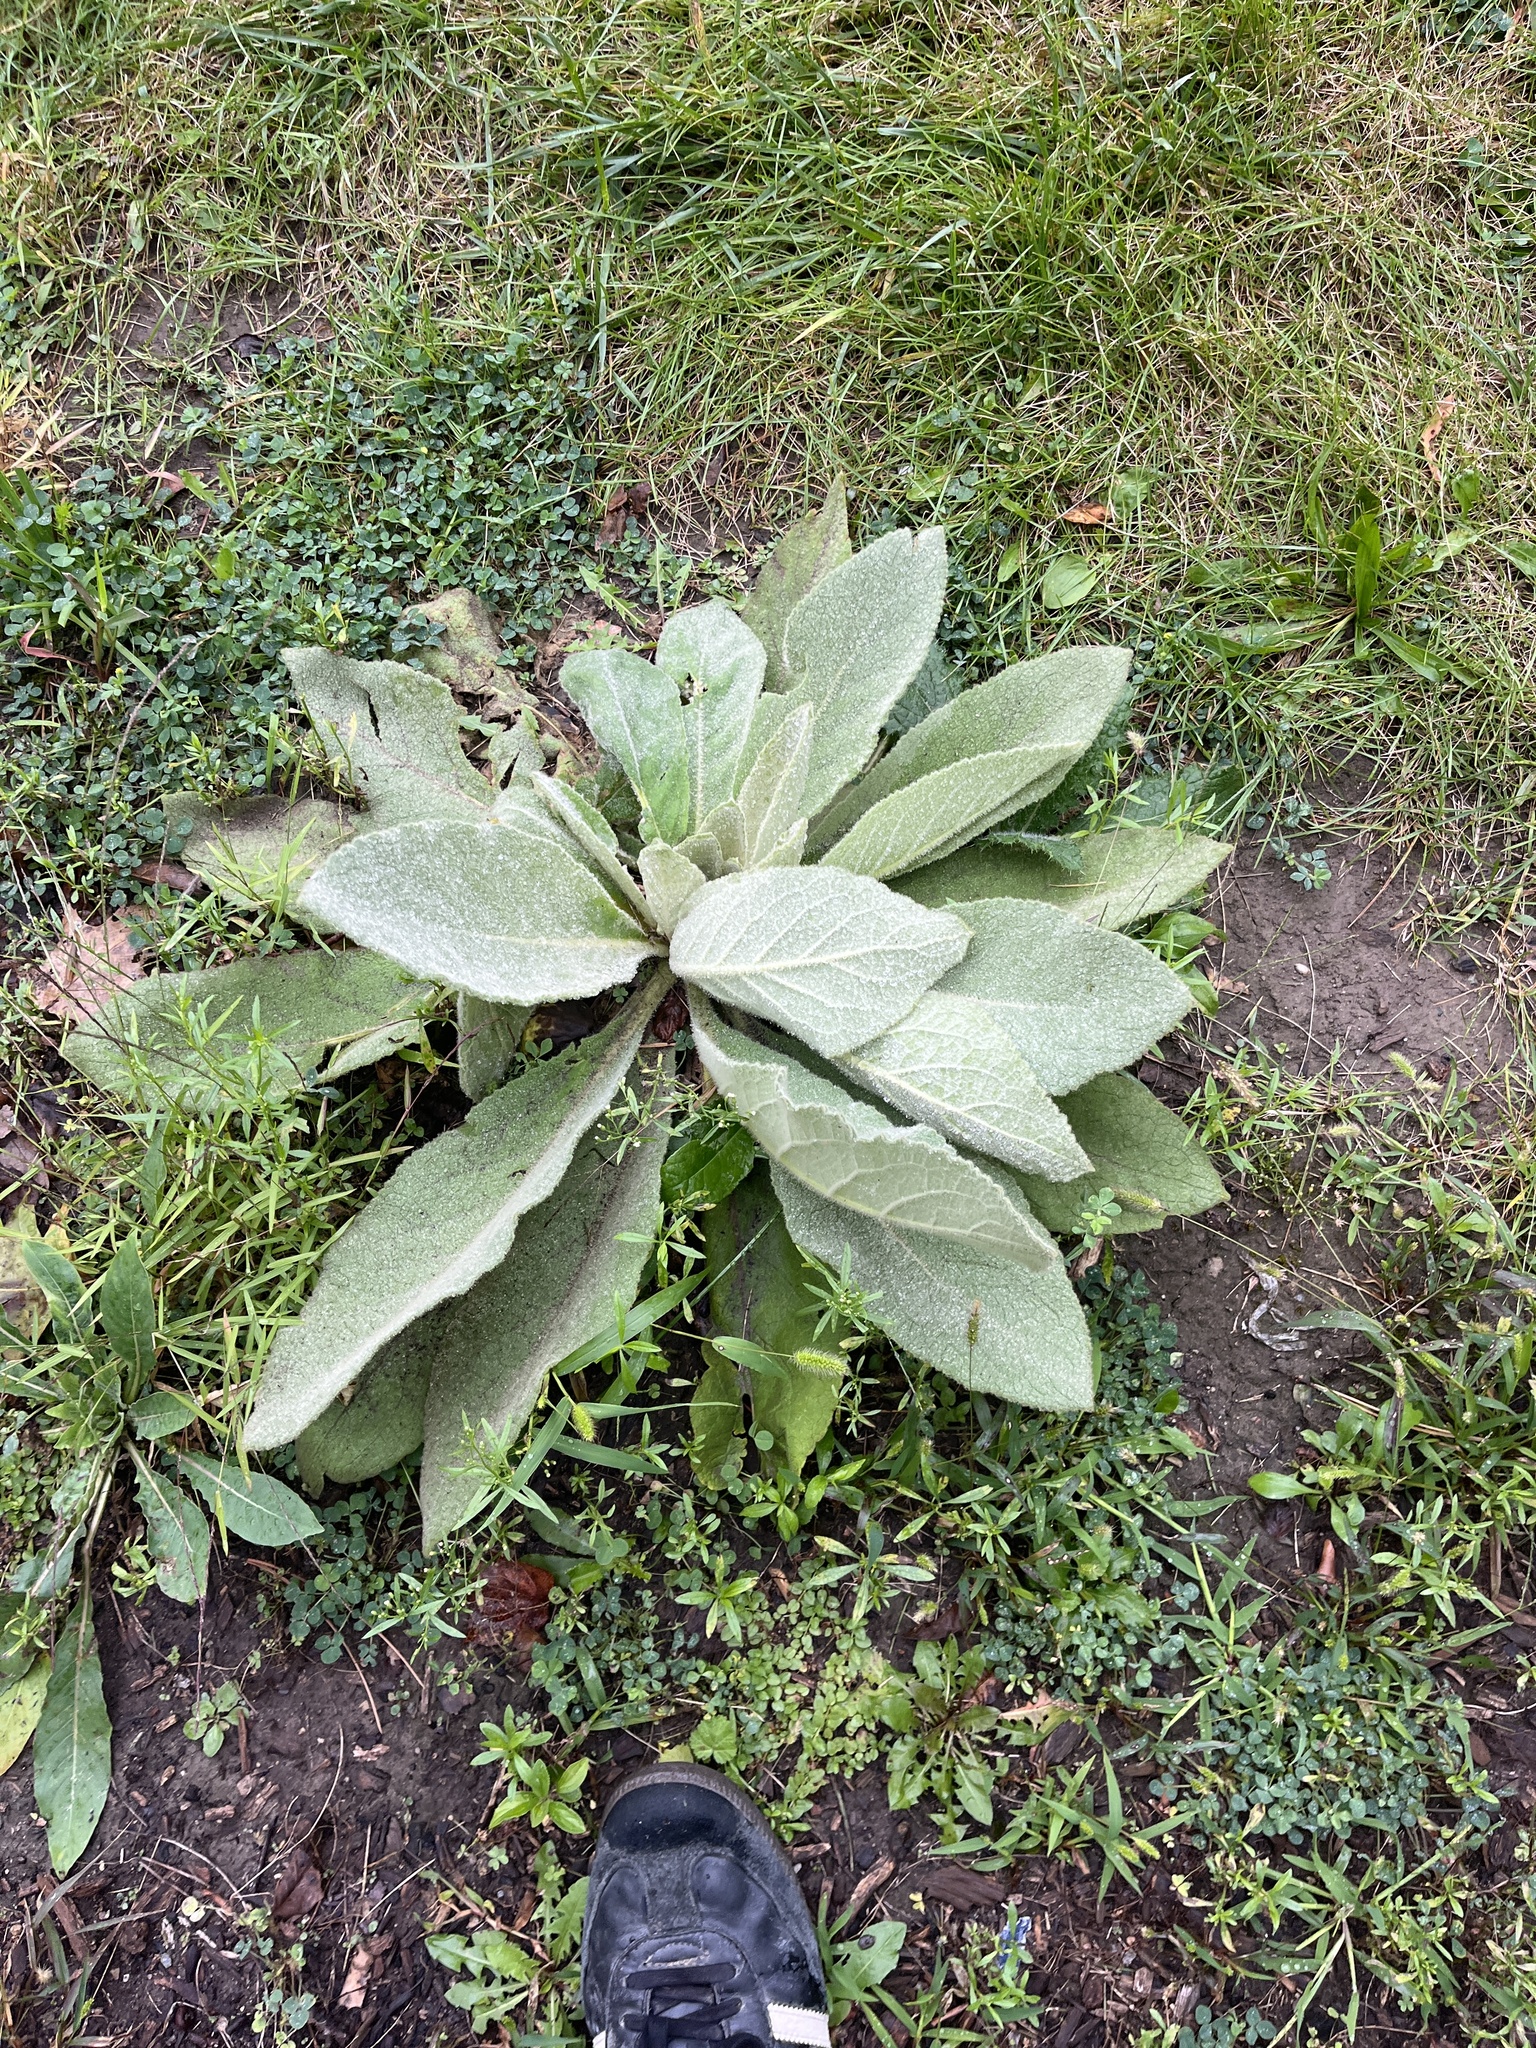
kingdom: Plantae
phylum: Tracheophyta
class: Magnoliopsida
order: Lamiales
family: Scrophulariaceae
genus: Verbascum
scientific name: Verbascum thapsus
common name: Common mullein
